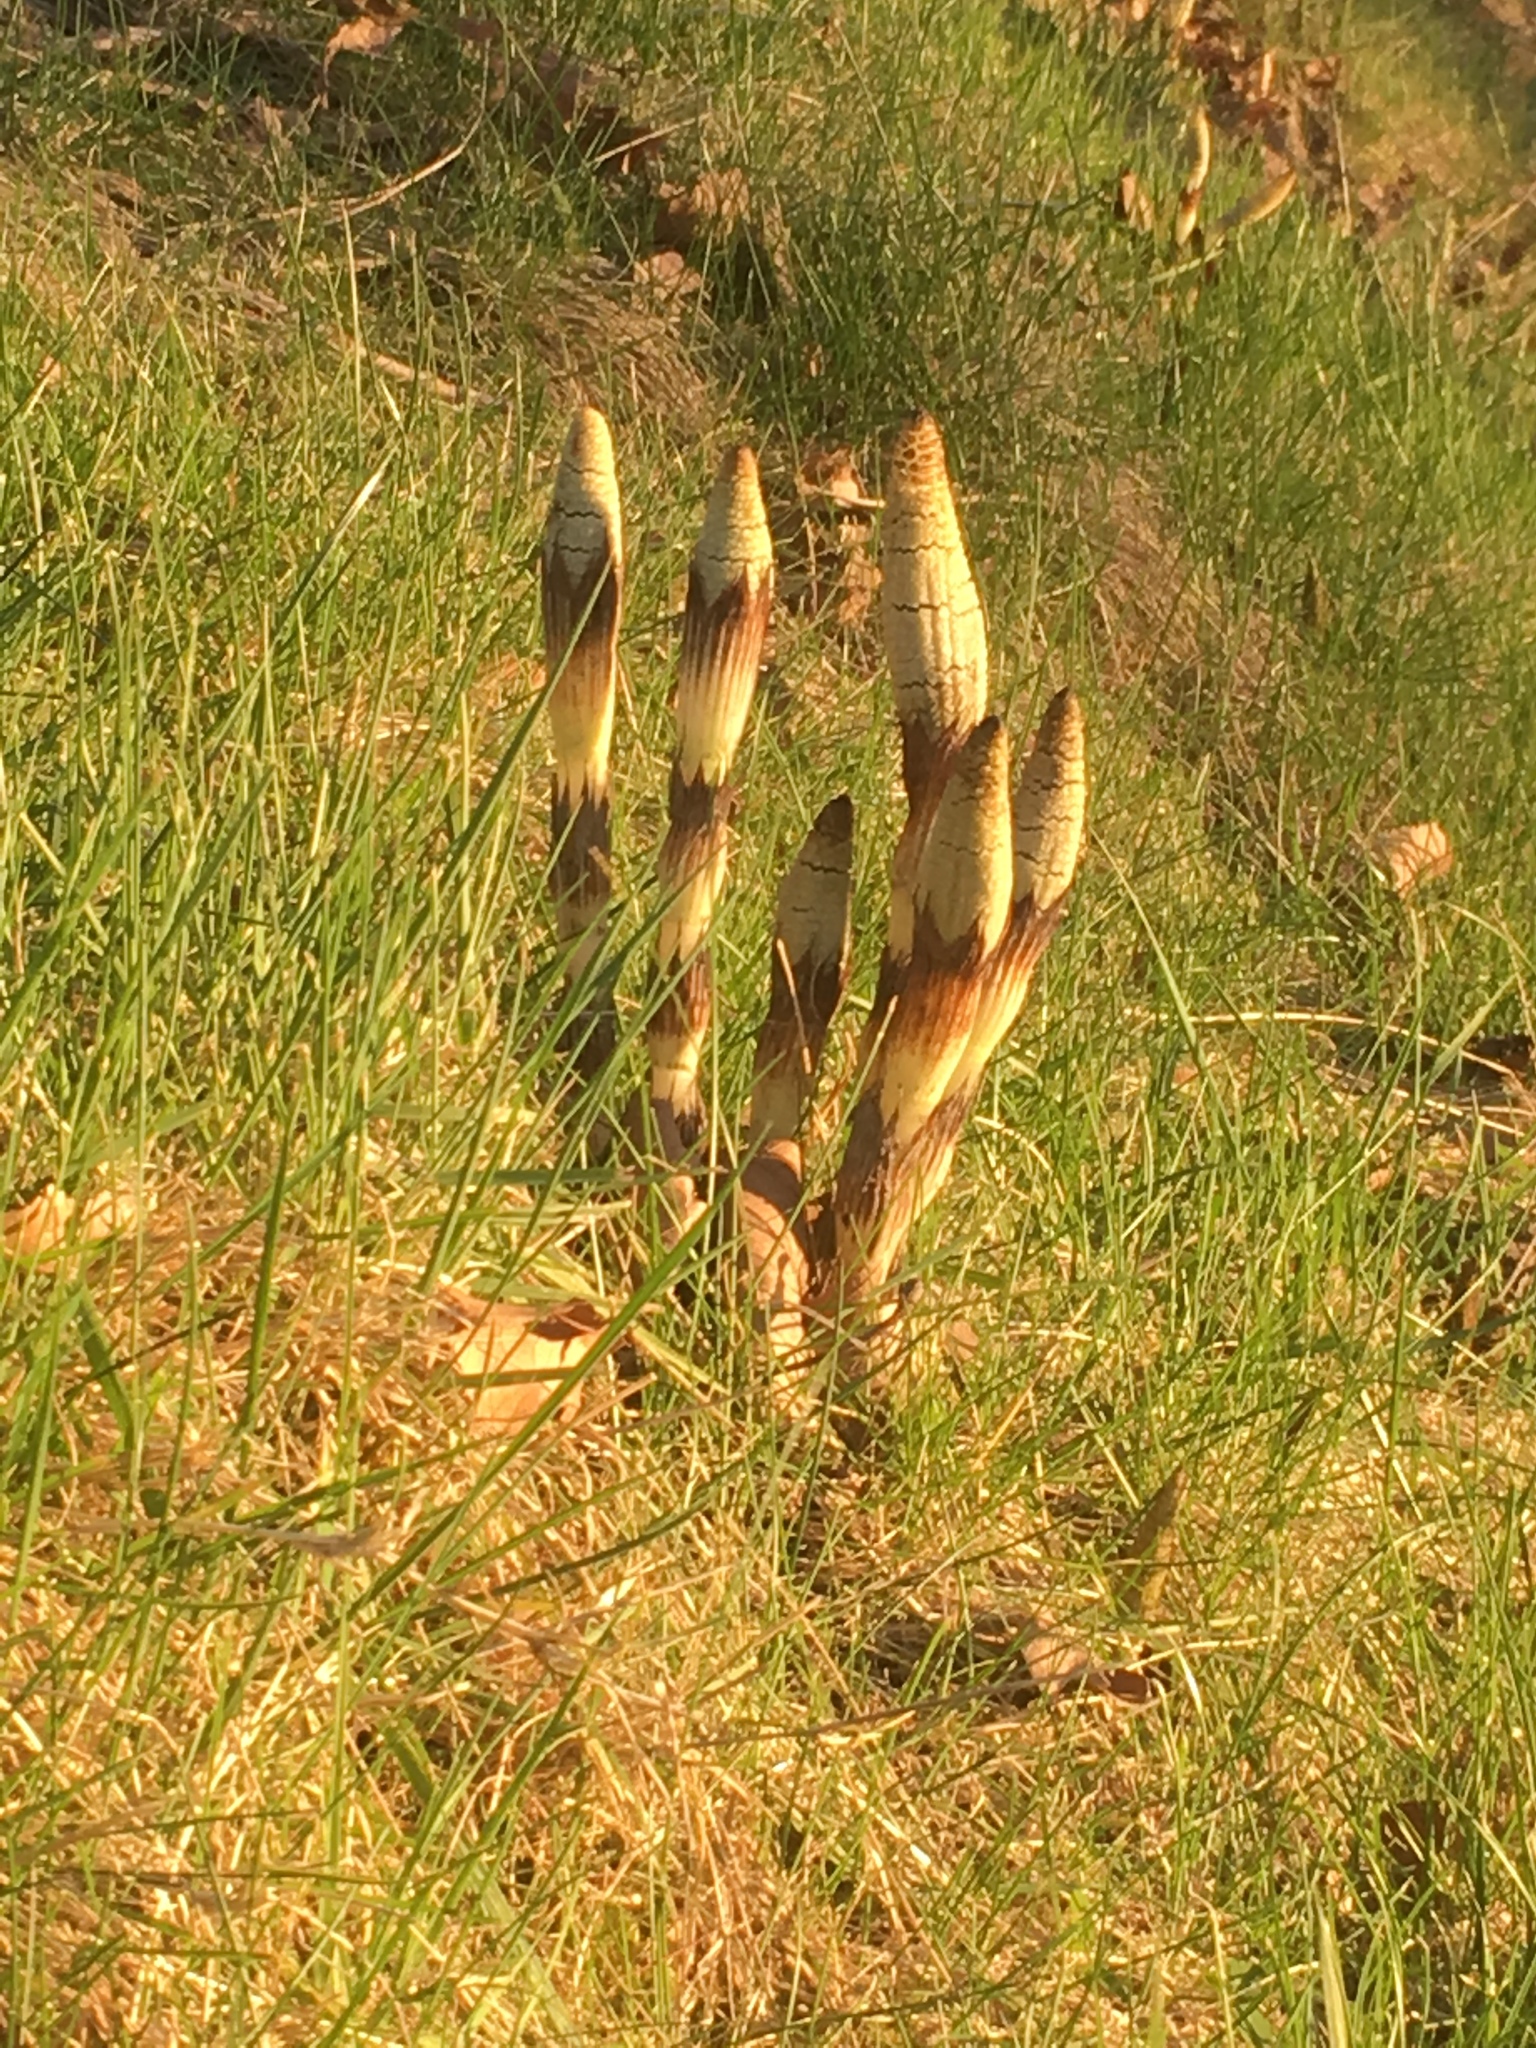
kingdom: Plantae
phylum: Tracheophyta
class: Polypodiopsida
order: Equisetales
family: Equisetaceae
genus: Equisetum
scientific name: Equisetum braunii
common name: Braun's horsetail
